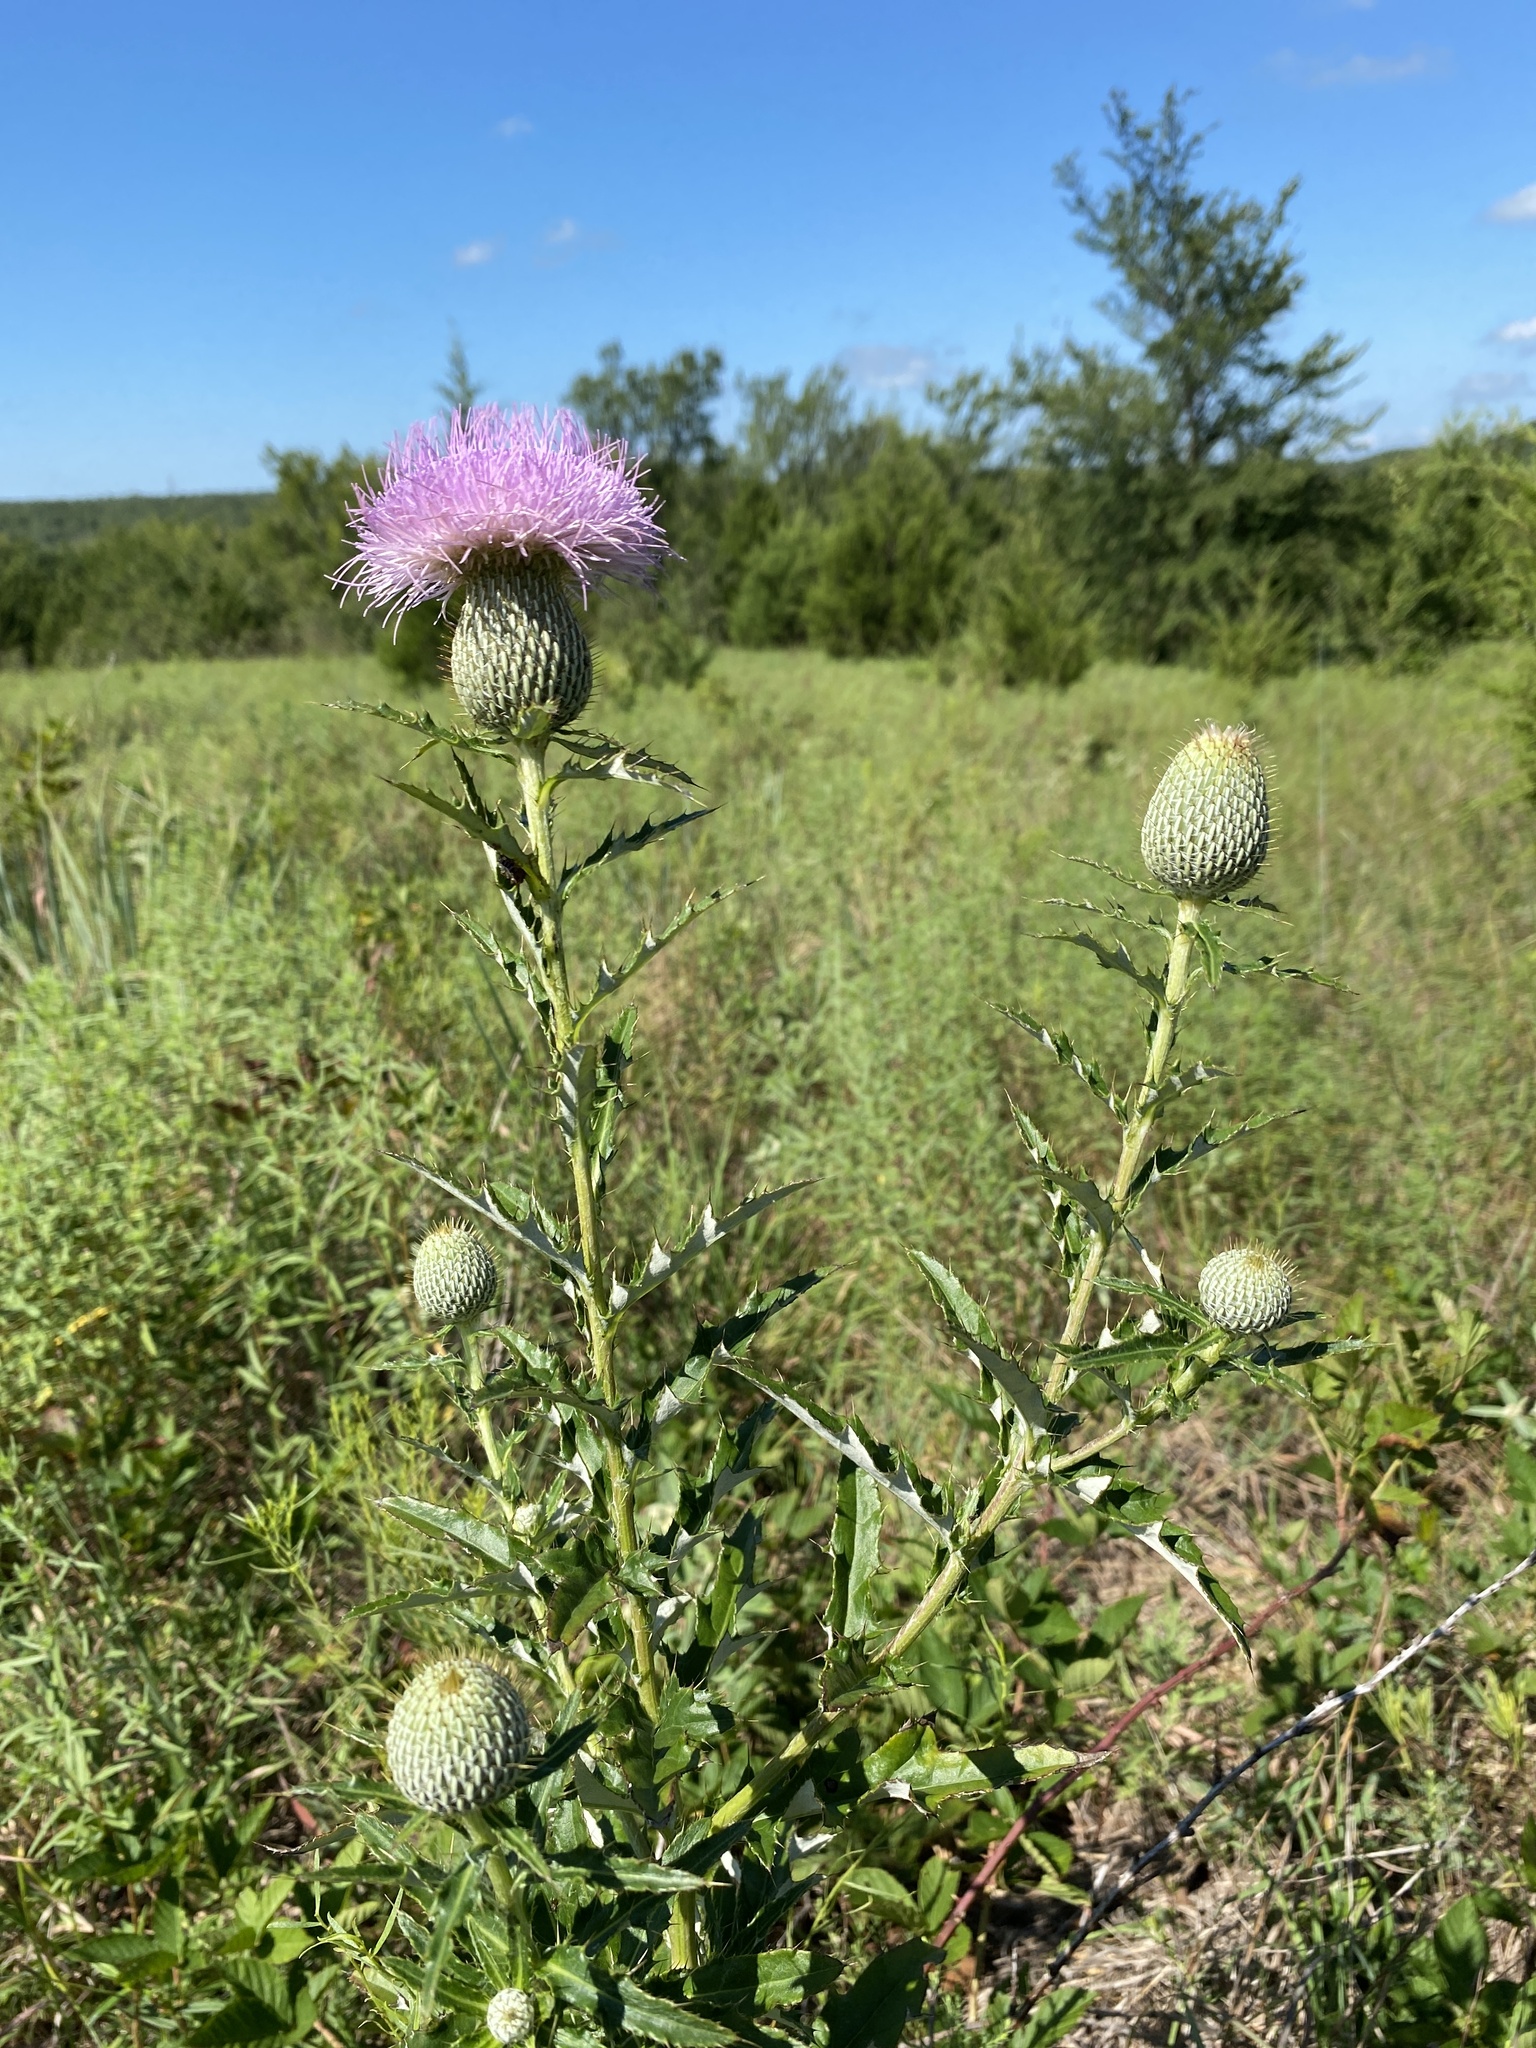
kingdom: Plantae
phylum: Tracheophyta
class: Magnoliopsida
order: Asterales
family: Asteraceae
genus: Cirsium
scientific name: Cirsium altissimum
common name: Roadside thistle
